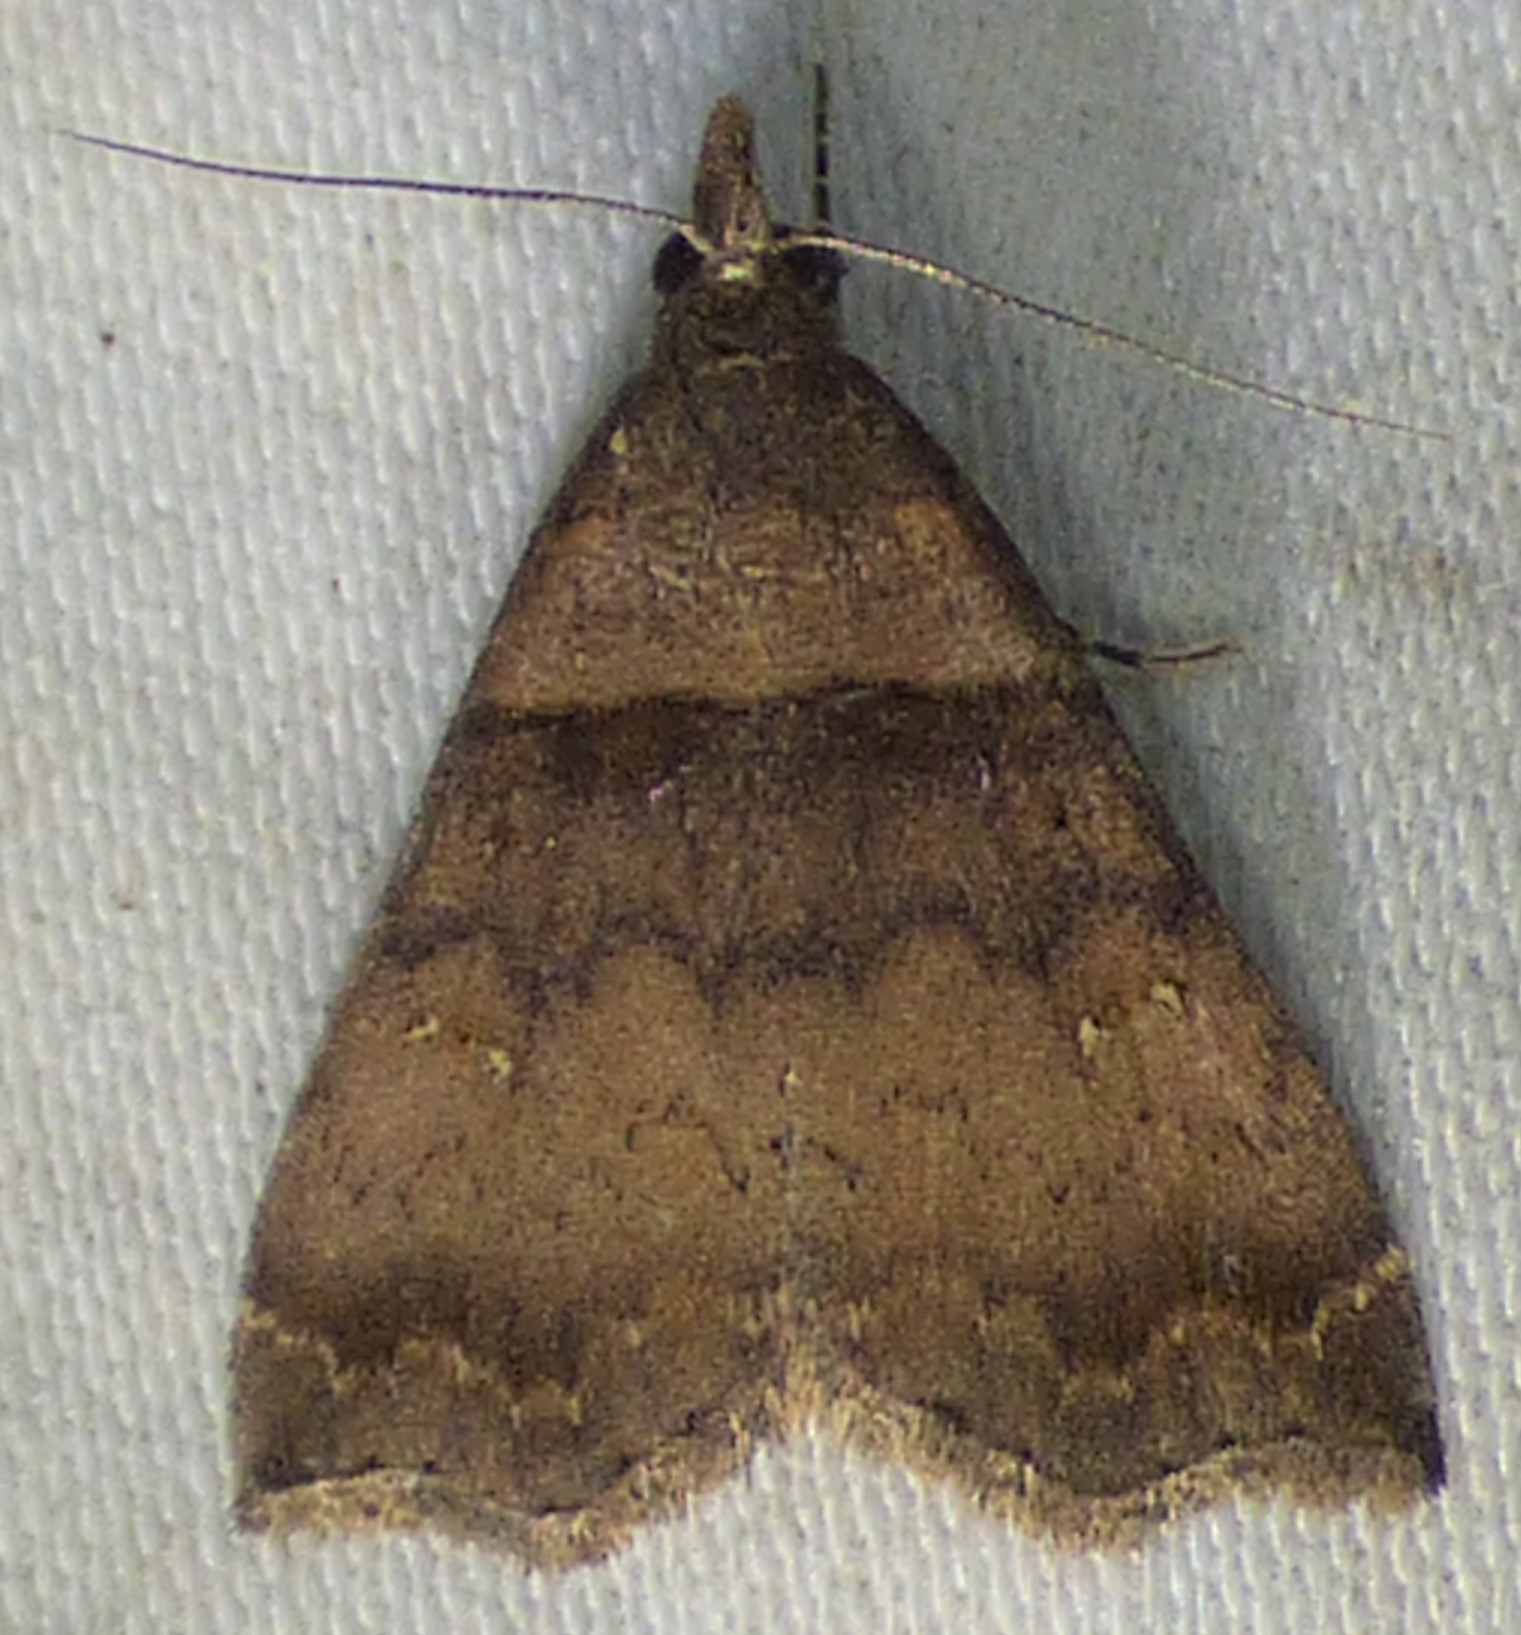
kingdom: Animalia
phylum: Arthropoda
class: Insecta
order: Lepidoptera
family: Erebidae
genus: Lascoria
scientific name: Lascoria ambigualis
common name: Ambiguous moth
